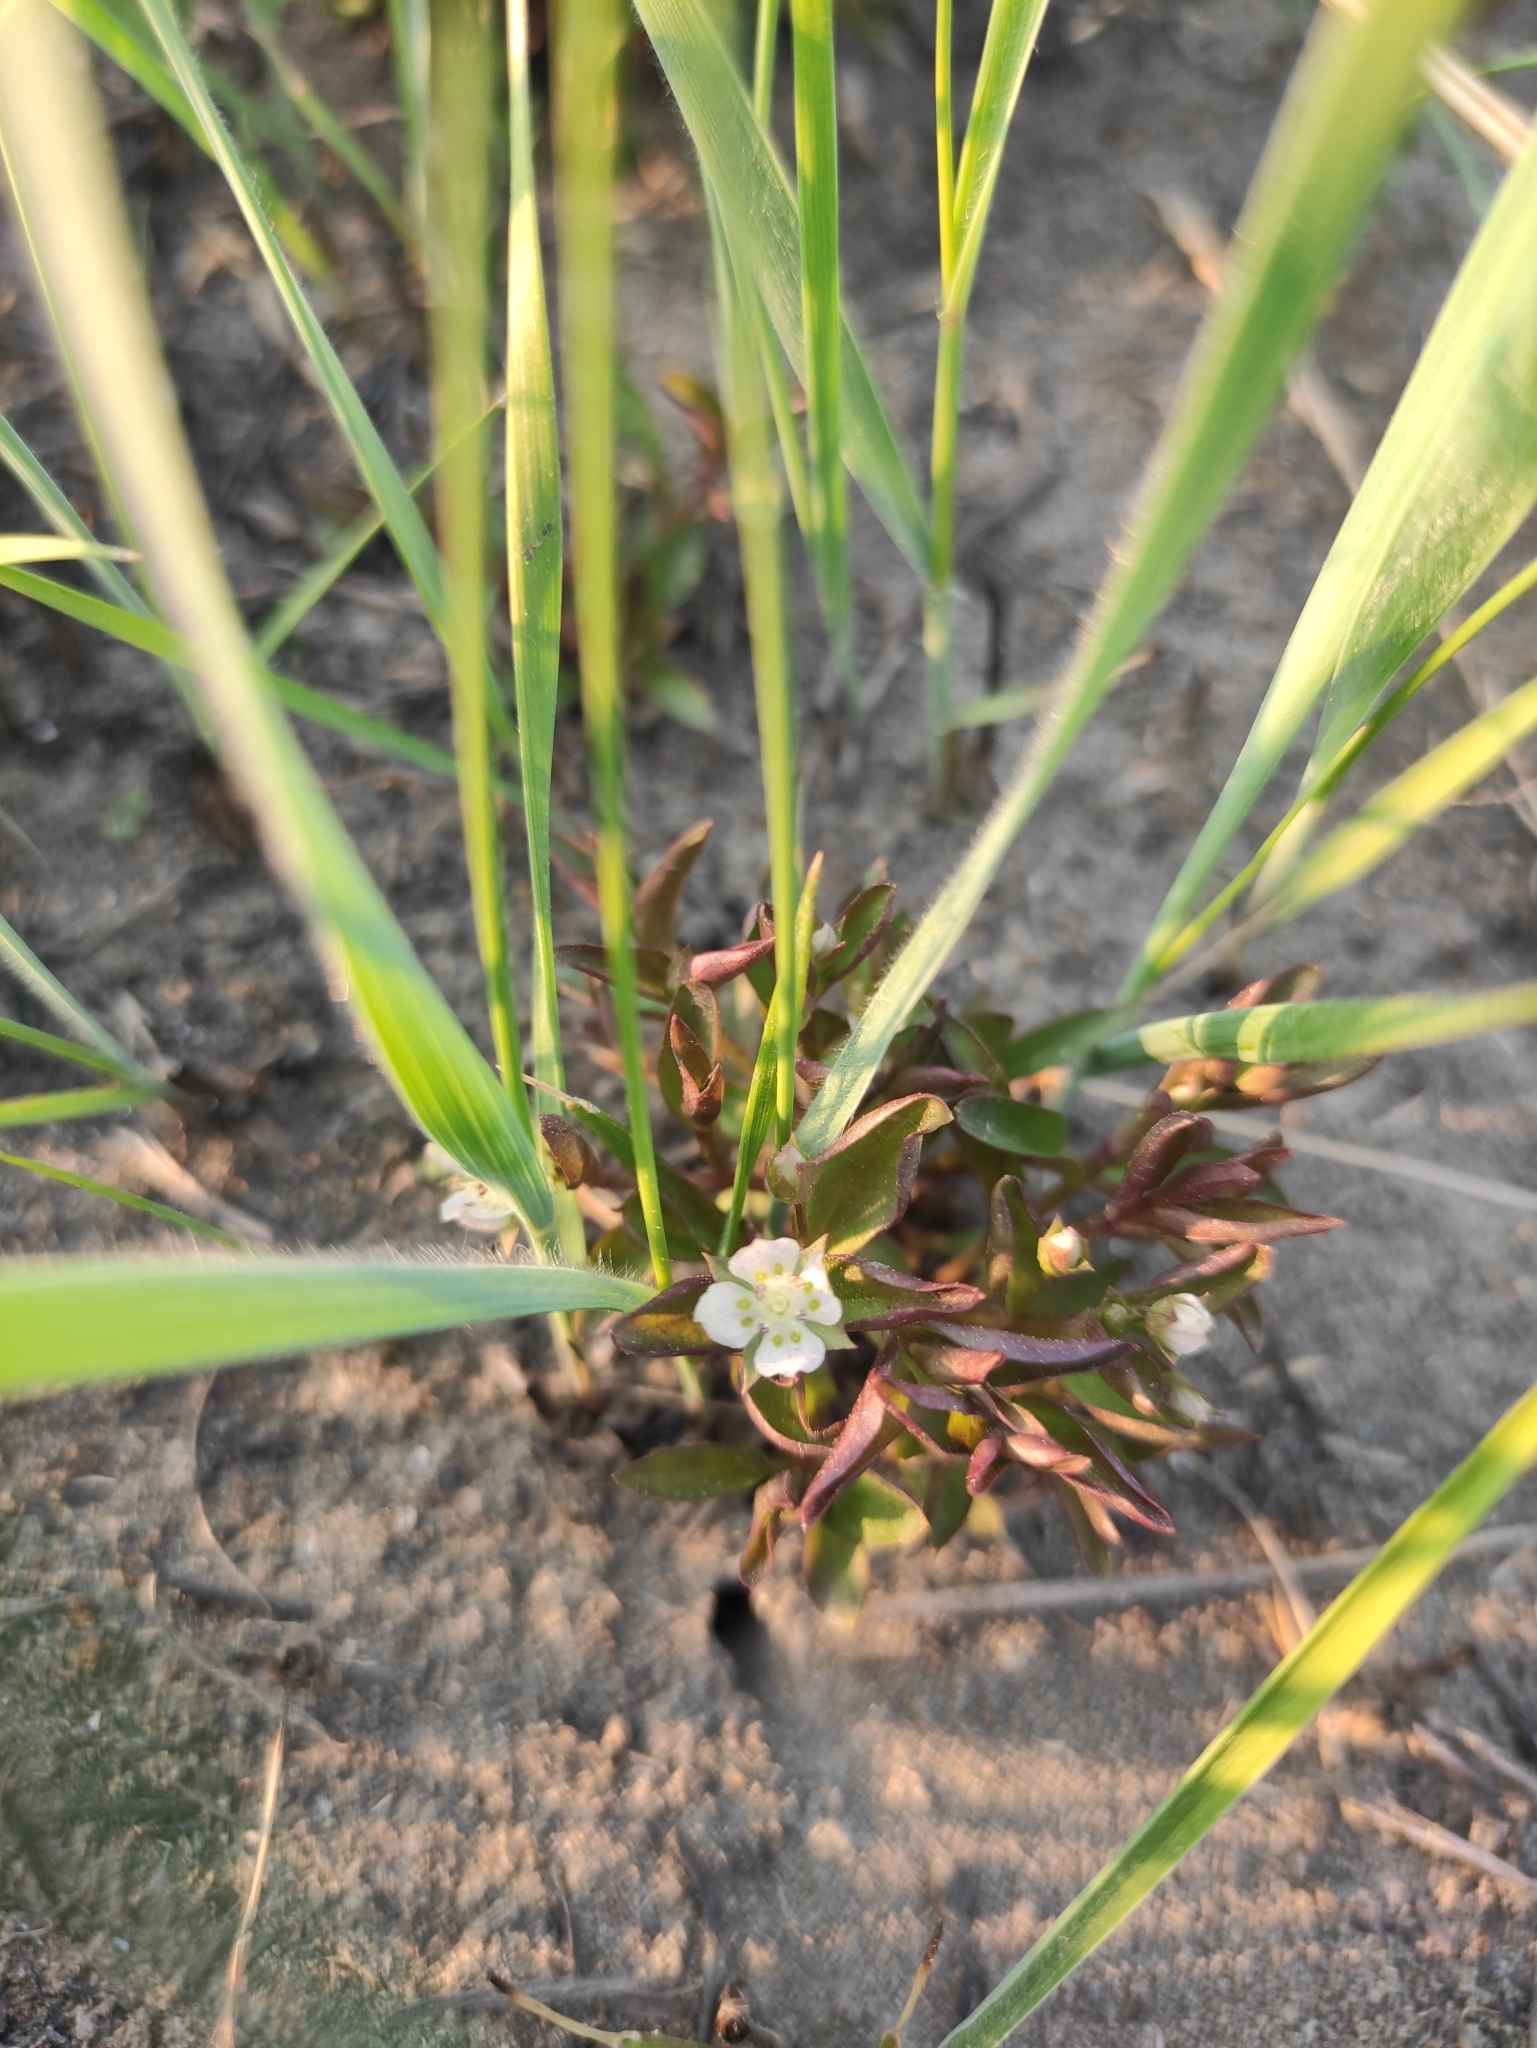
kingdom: Plantae
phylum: Tracheophyta
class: Magnoliopsida
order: Gentianales
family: Gentianaceae
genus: Swertia
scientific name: Swertia dichotoma
